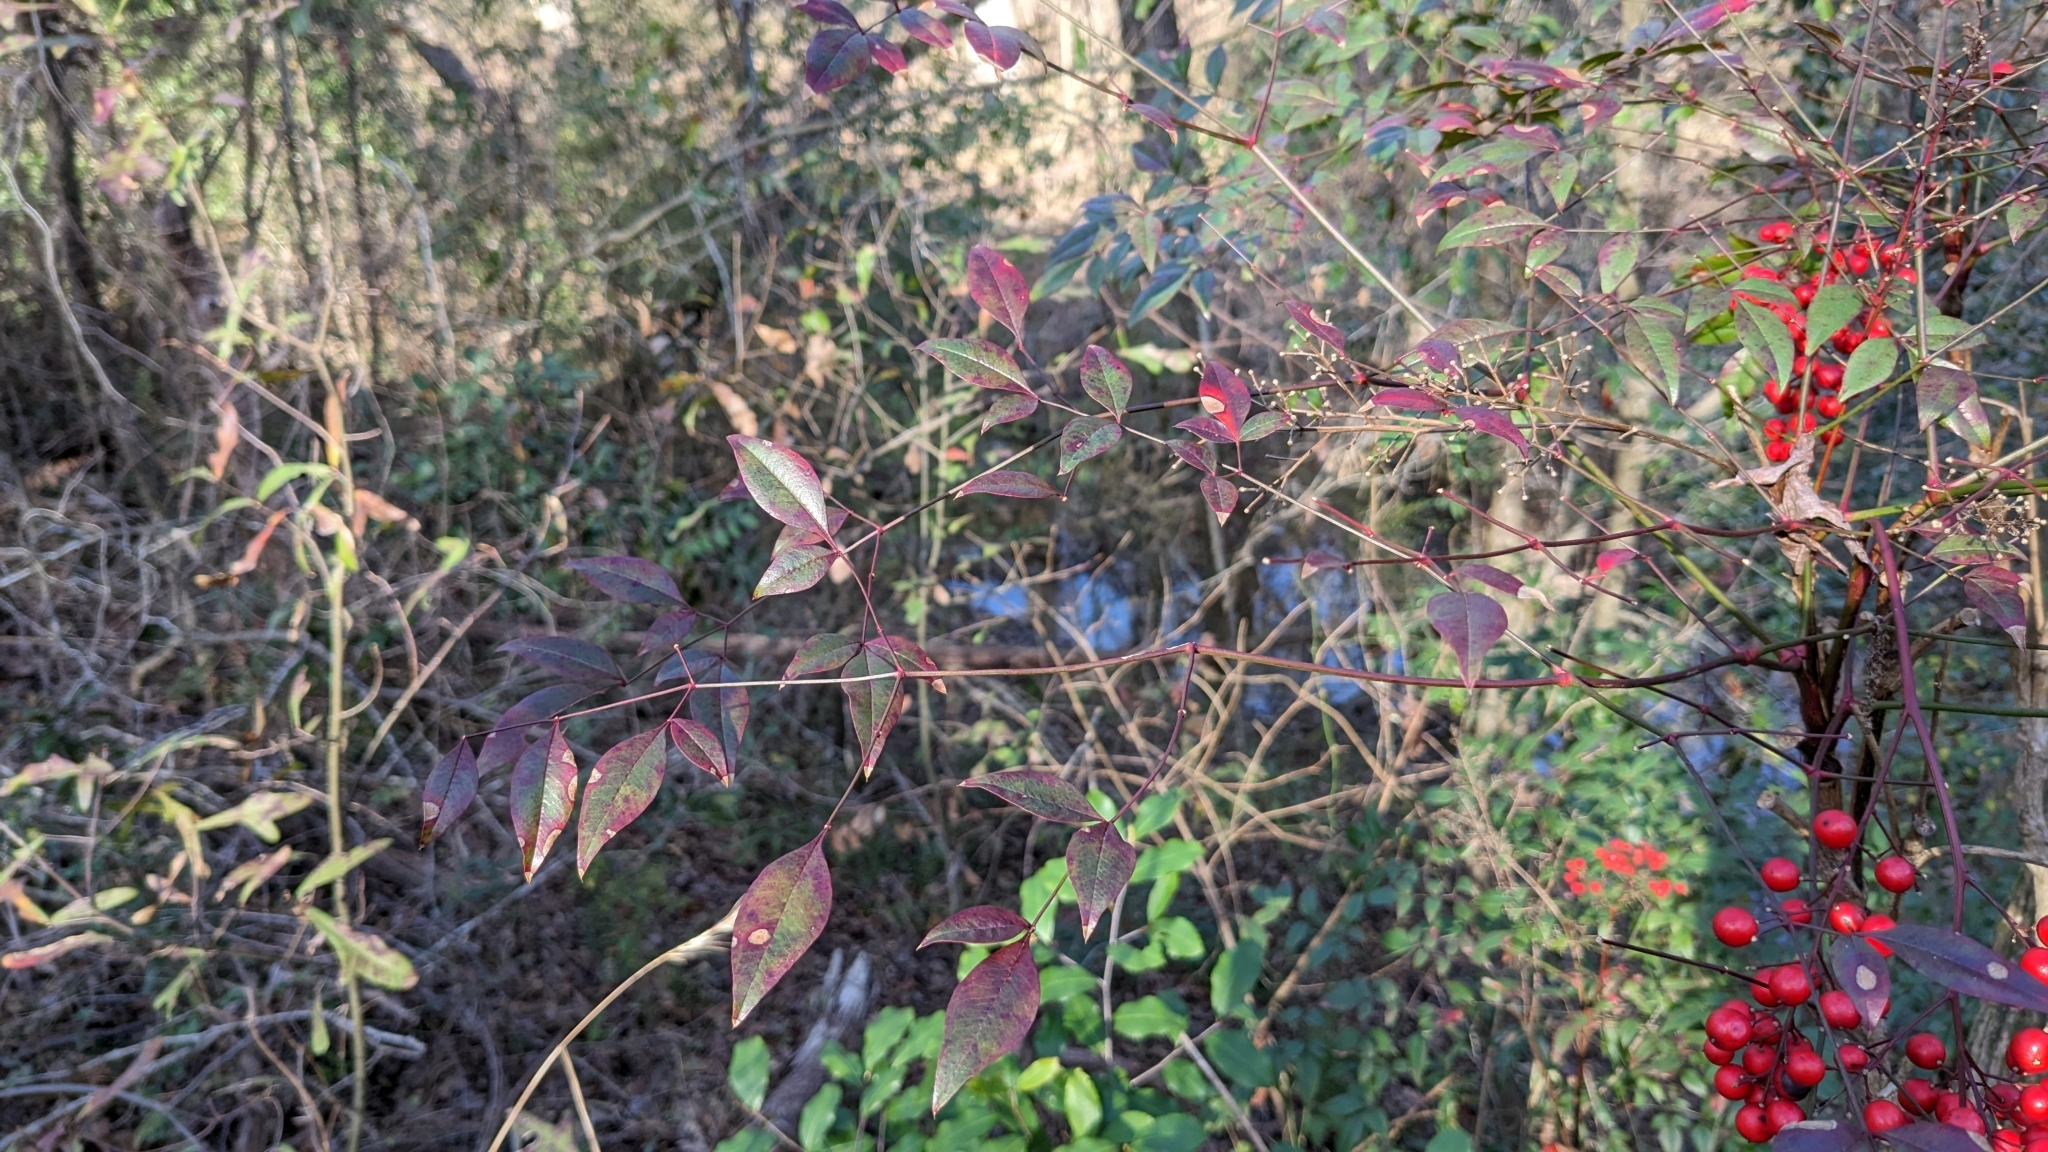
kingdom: Plantae
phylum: Tracheophyta
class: Magnoliopsida
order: Ranunculales
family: Berberidaceae
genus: Nandina
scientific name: Nandina domestica
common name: Sacred bamboo
